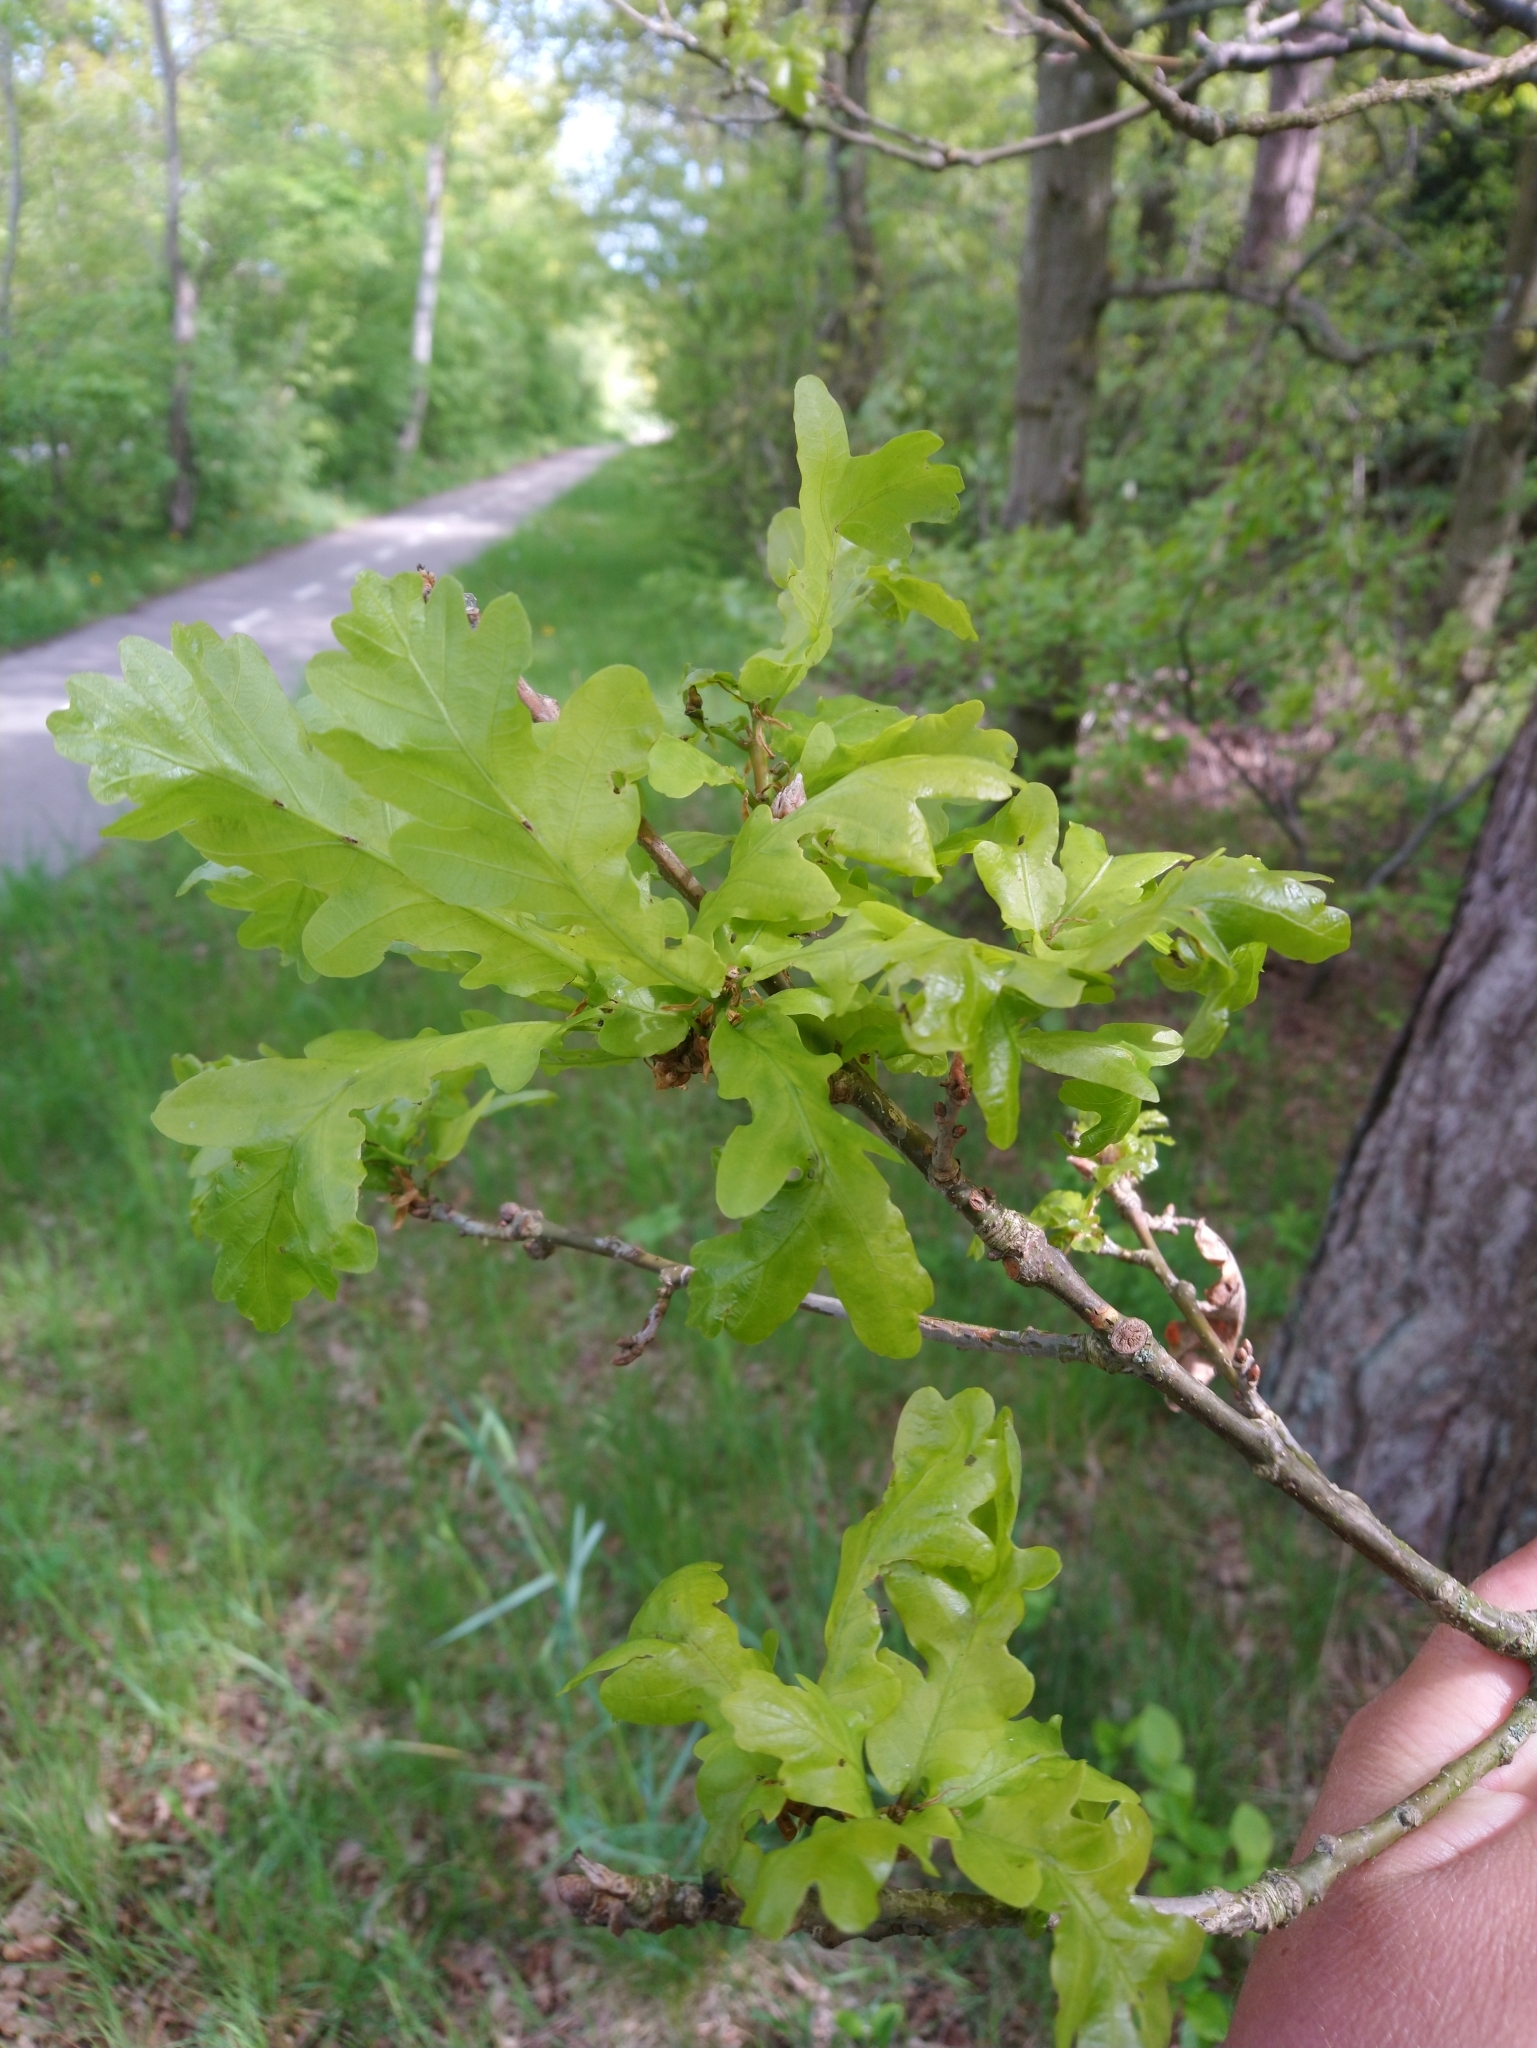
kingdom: Plantae
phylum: Tracheophyta
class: Magnoliopsida
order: Fagales
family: Fagaceae
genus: Quercus
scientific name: Quercus robur
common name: Pedunculate oak
